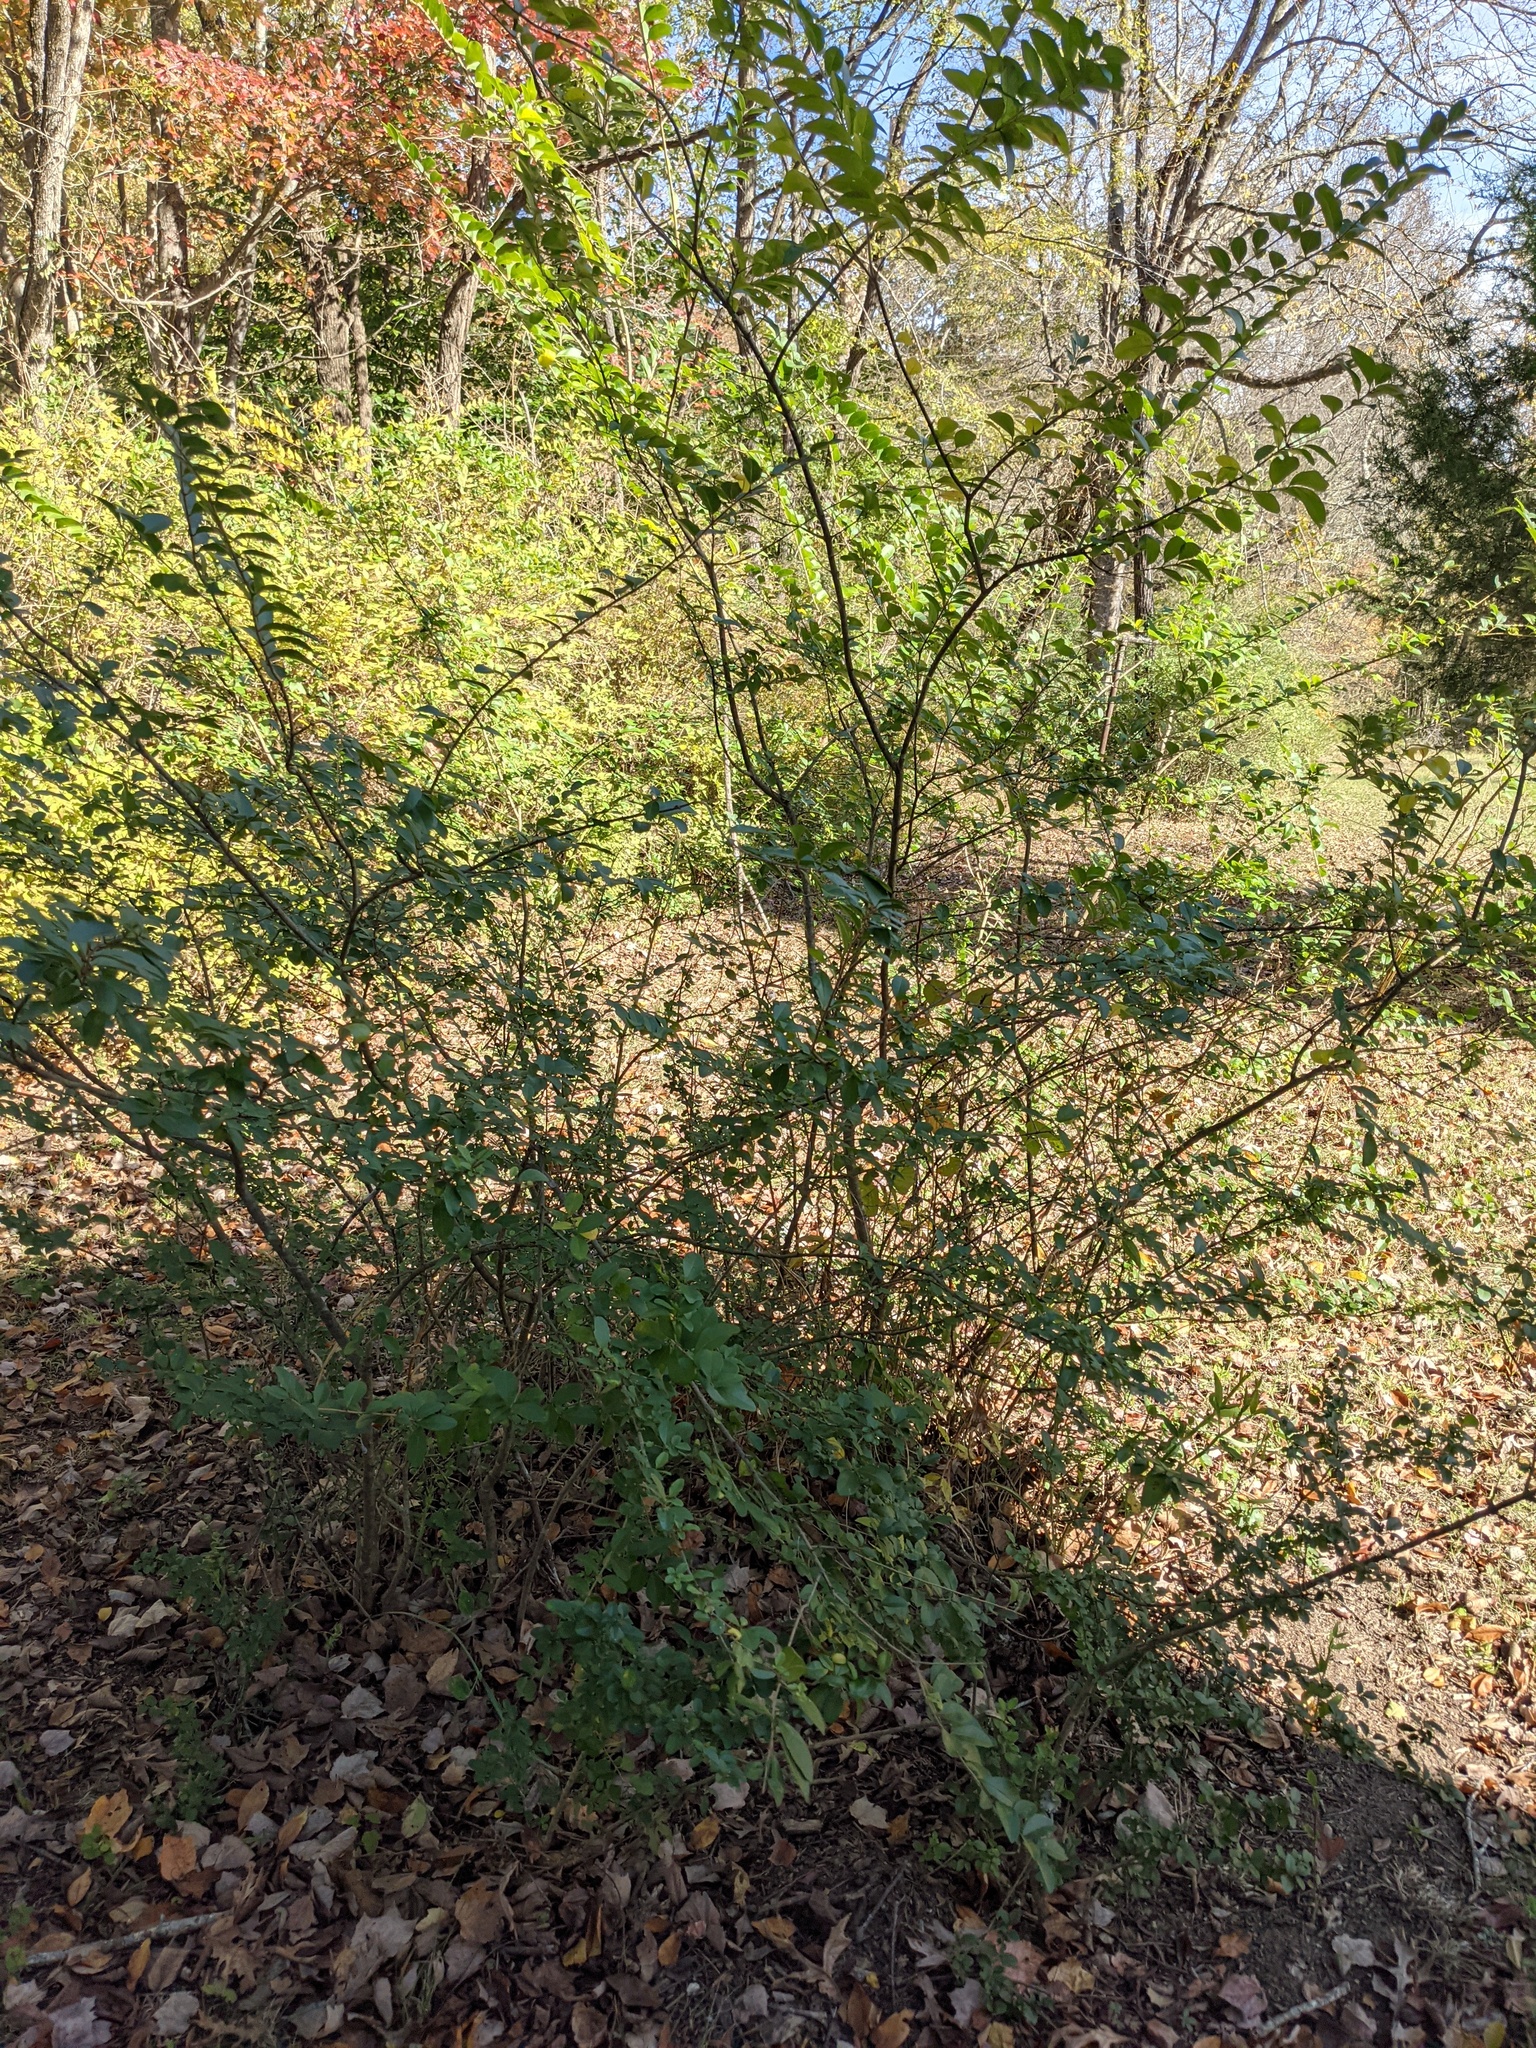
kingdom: Plantae
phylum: Tracheophyta
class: Magnoliopsida
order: Lamiales
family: Oleaceae
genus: Ligustrum
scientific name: Ligustrum sinense
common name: Chinese privet
